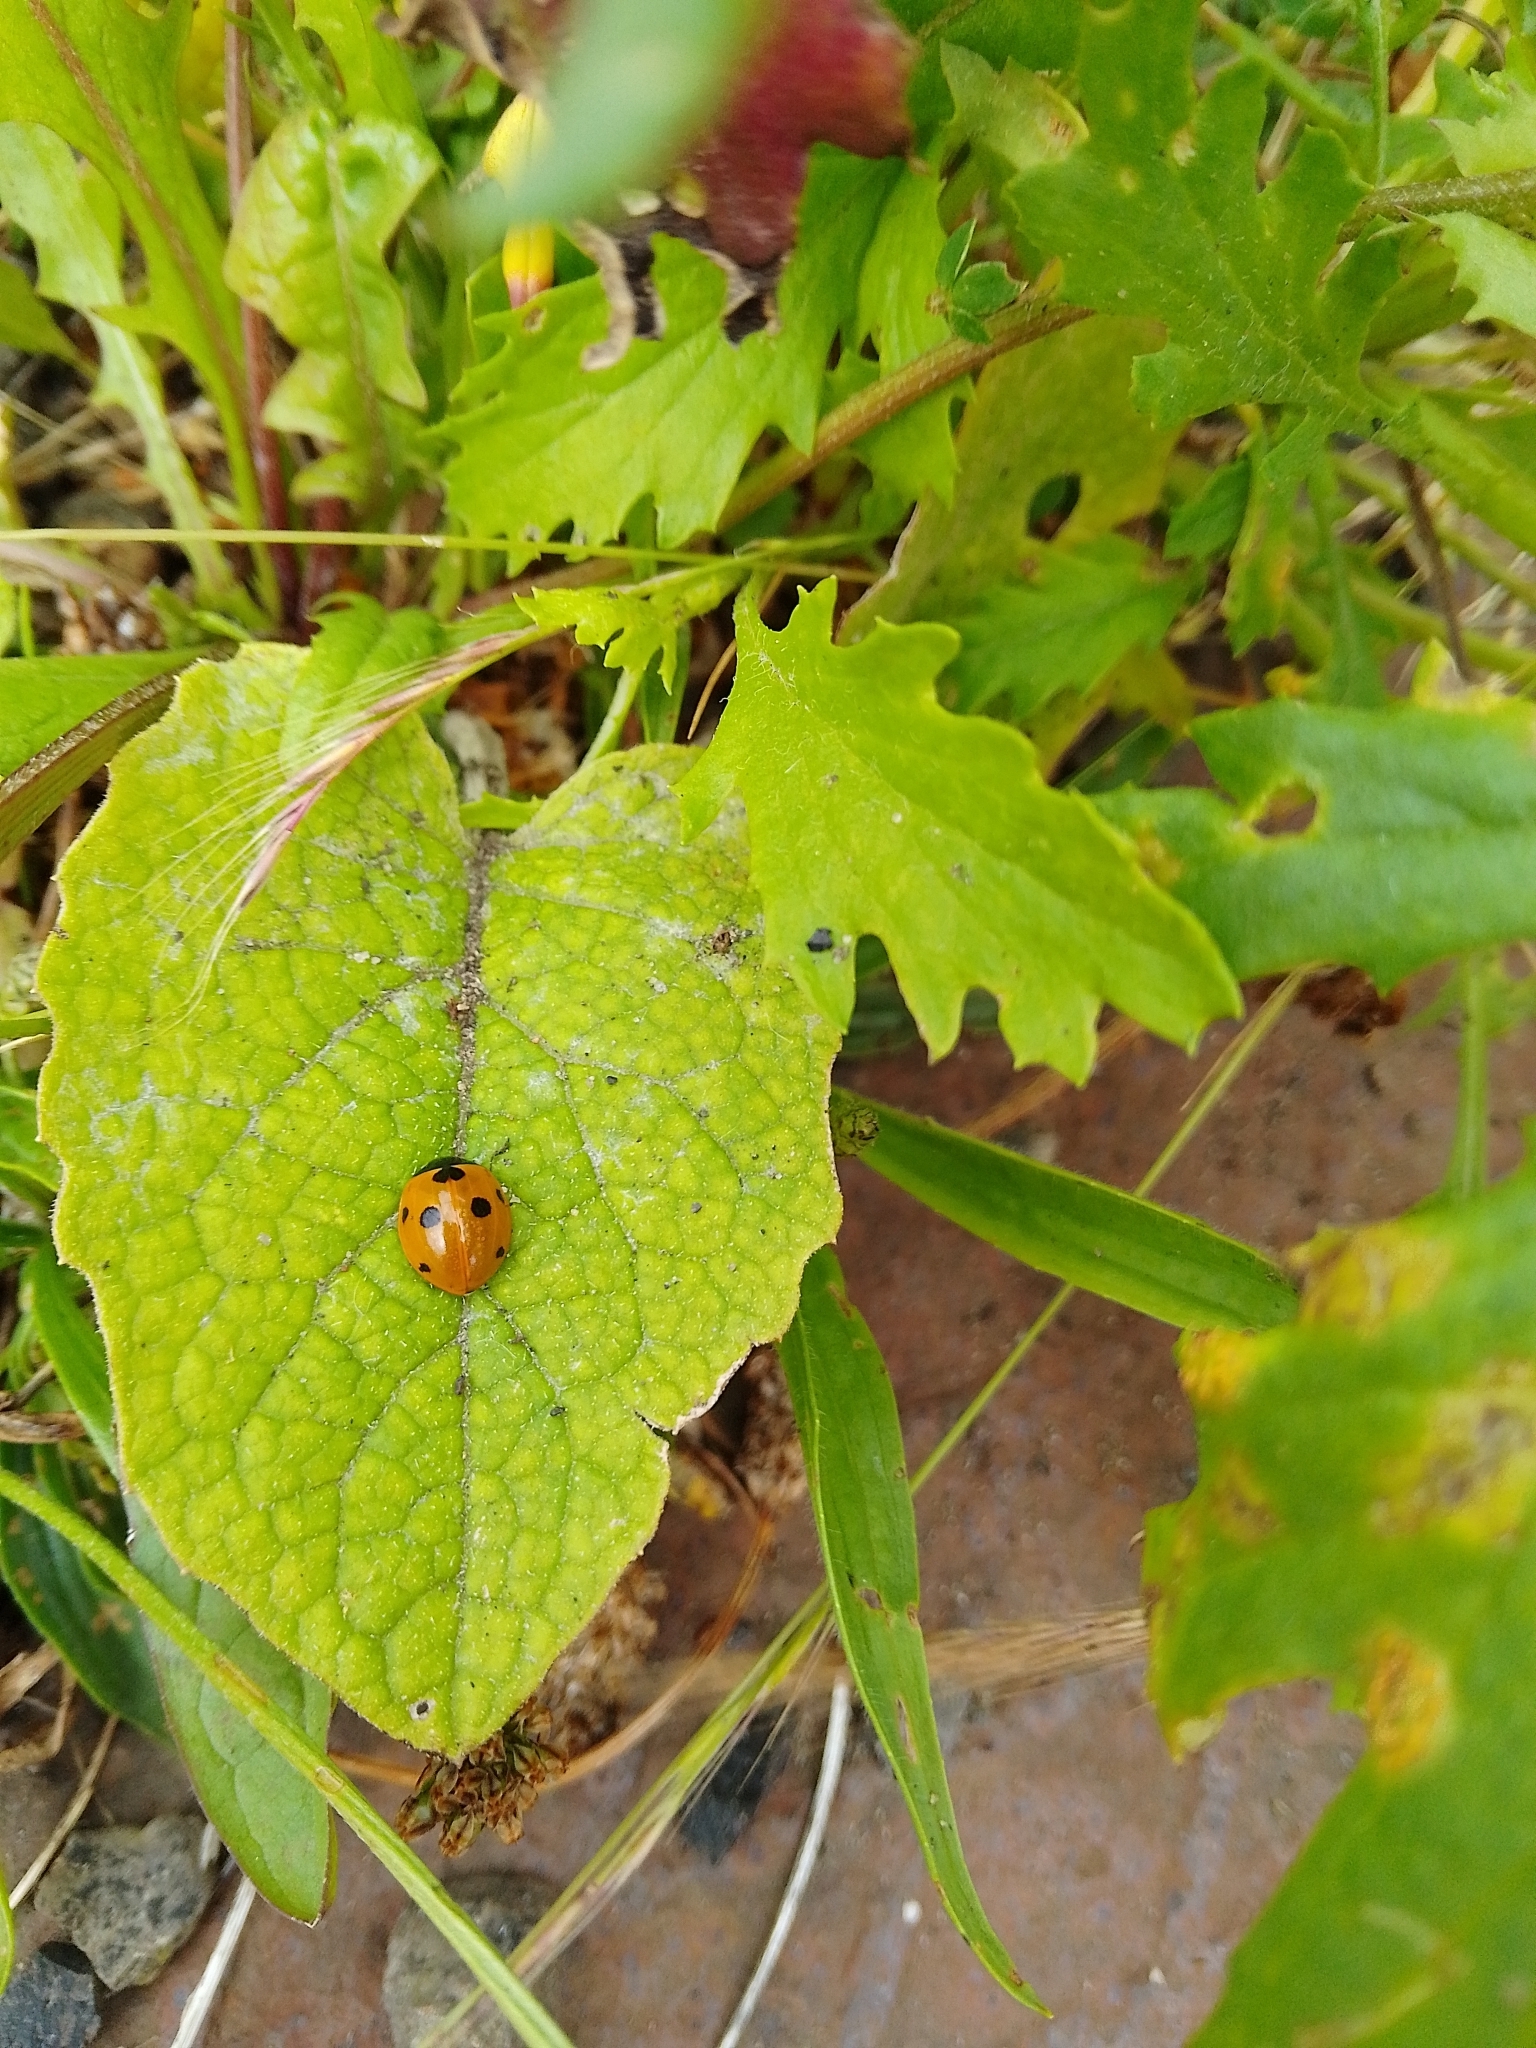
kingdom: Animalia
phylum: Arthropoda
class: Insecta
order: Coleoptera
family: Coccinellidae
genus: Coccinella
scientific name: Coccinella septempunctata
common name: Sevenspotted lady beetle
